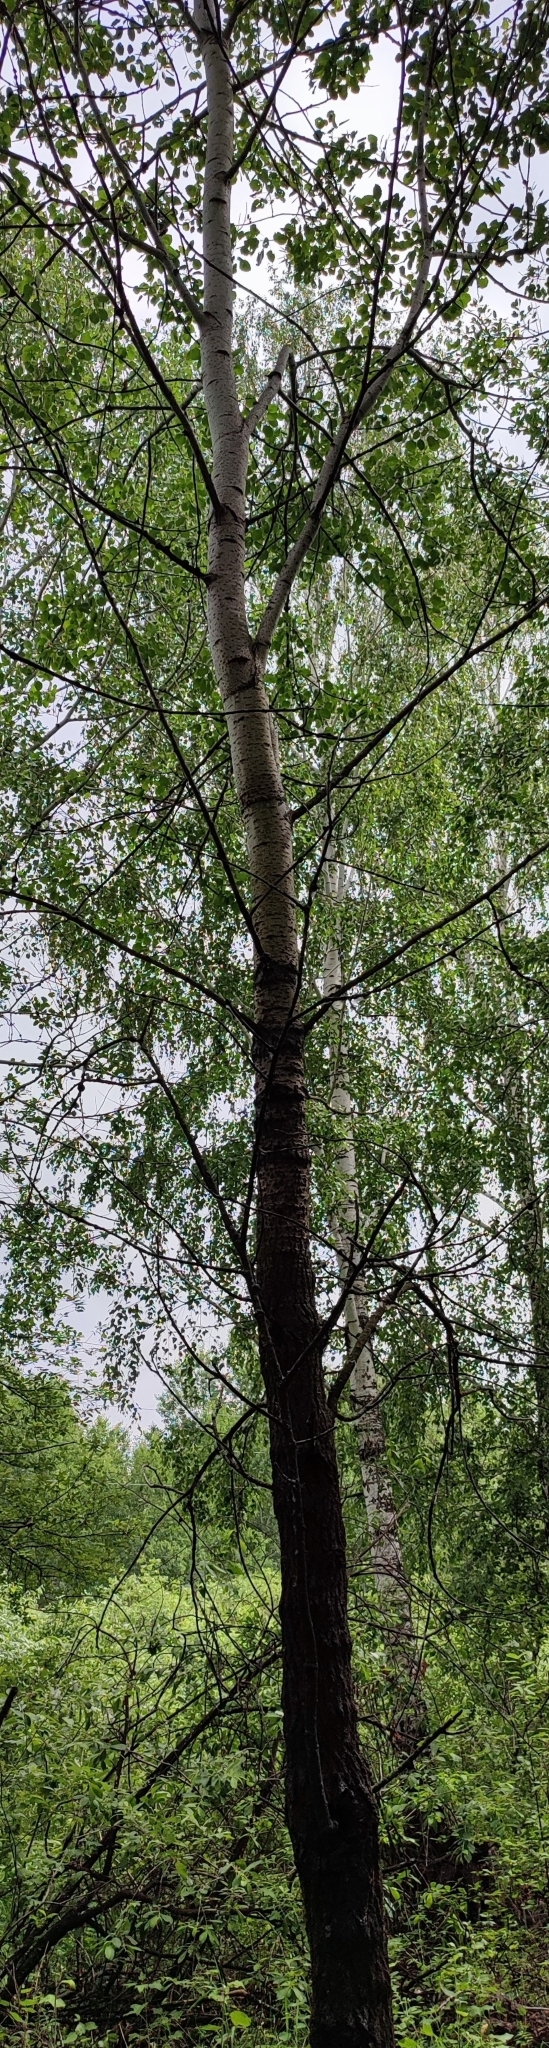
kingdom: Plantae
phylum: Tracheophyta
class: Magnoliopsida
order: Malpighiales
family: Salicaceae
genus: Populus
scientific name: Populus tremula
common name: European aspen
